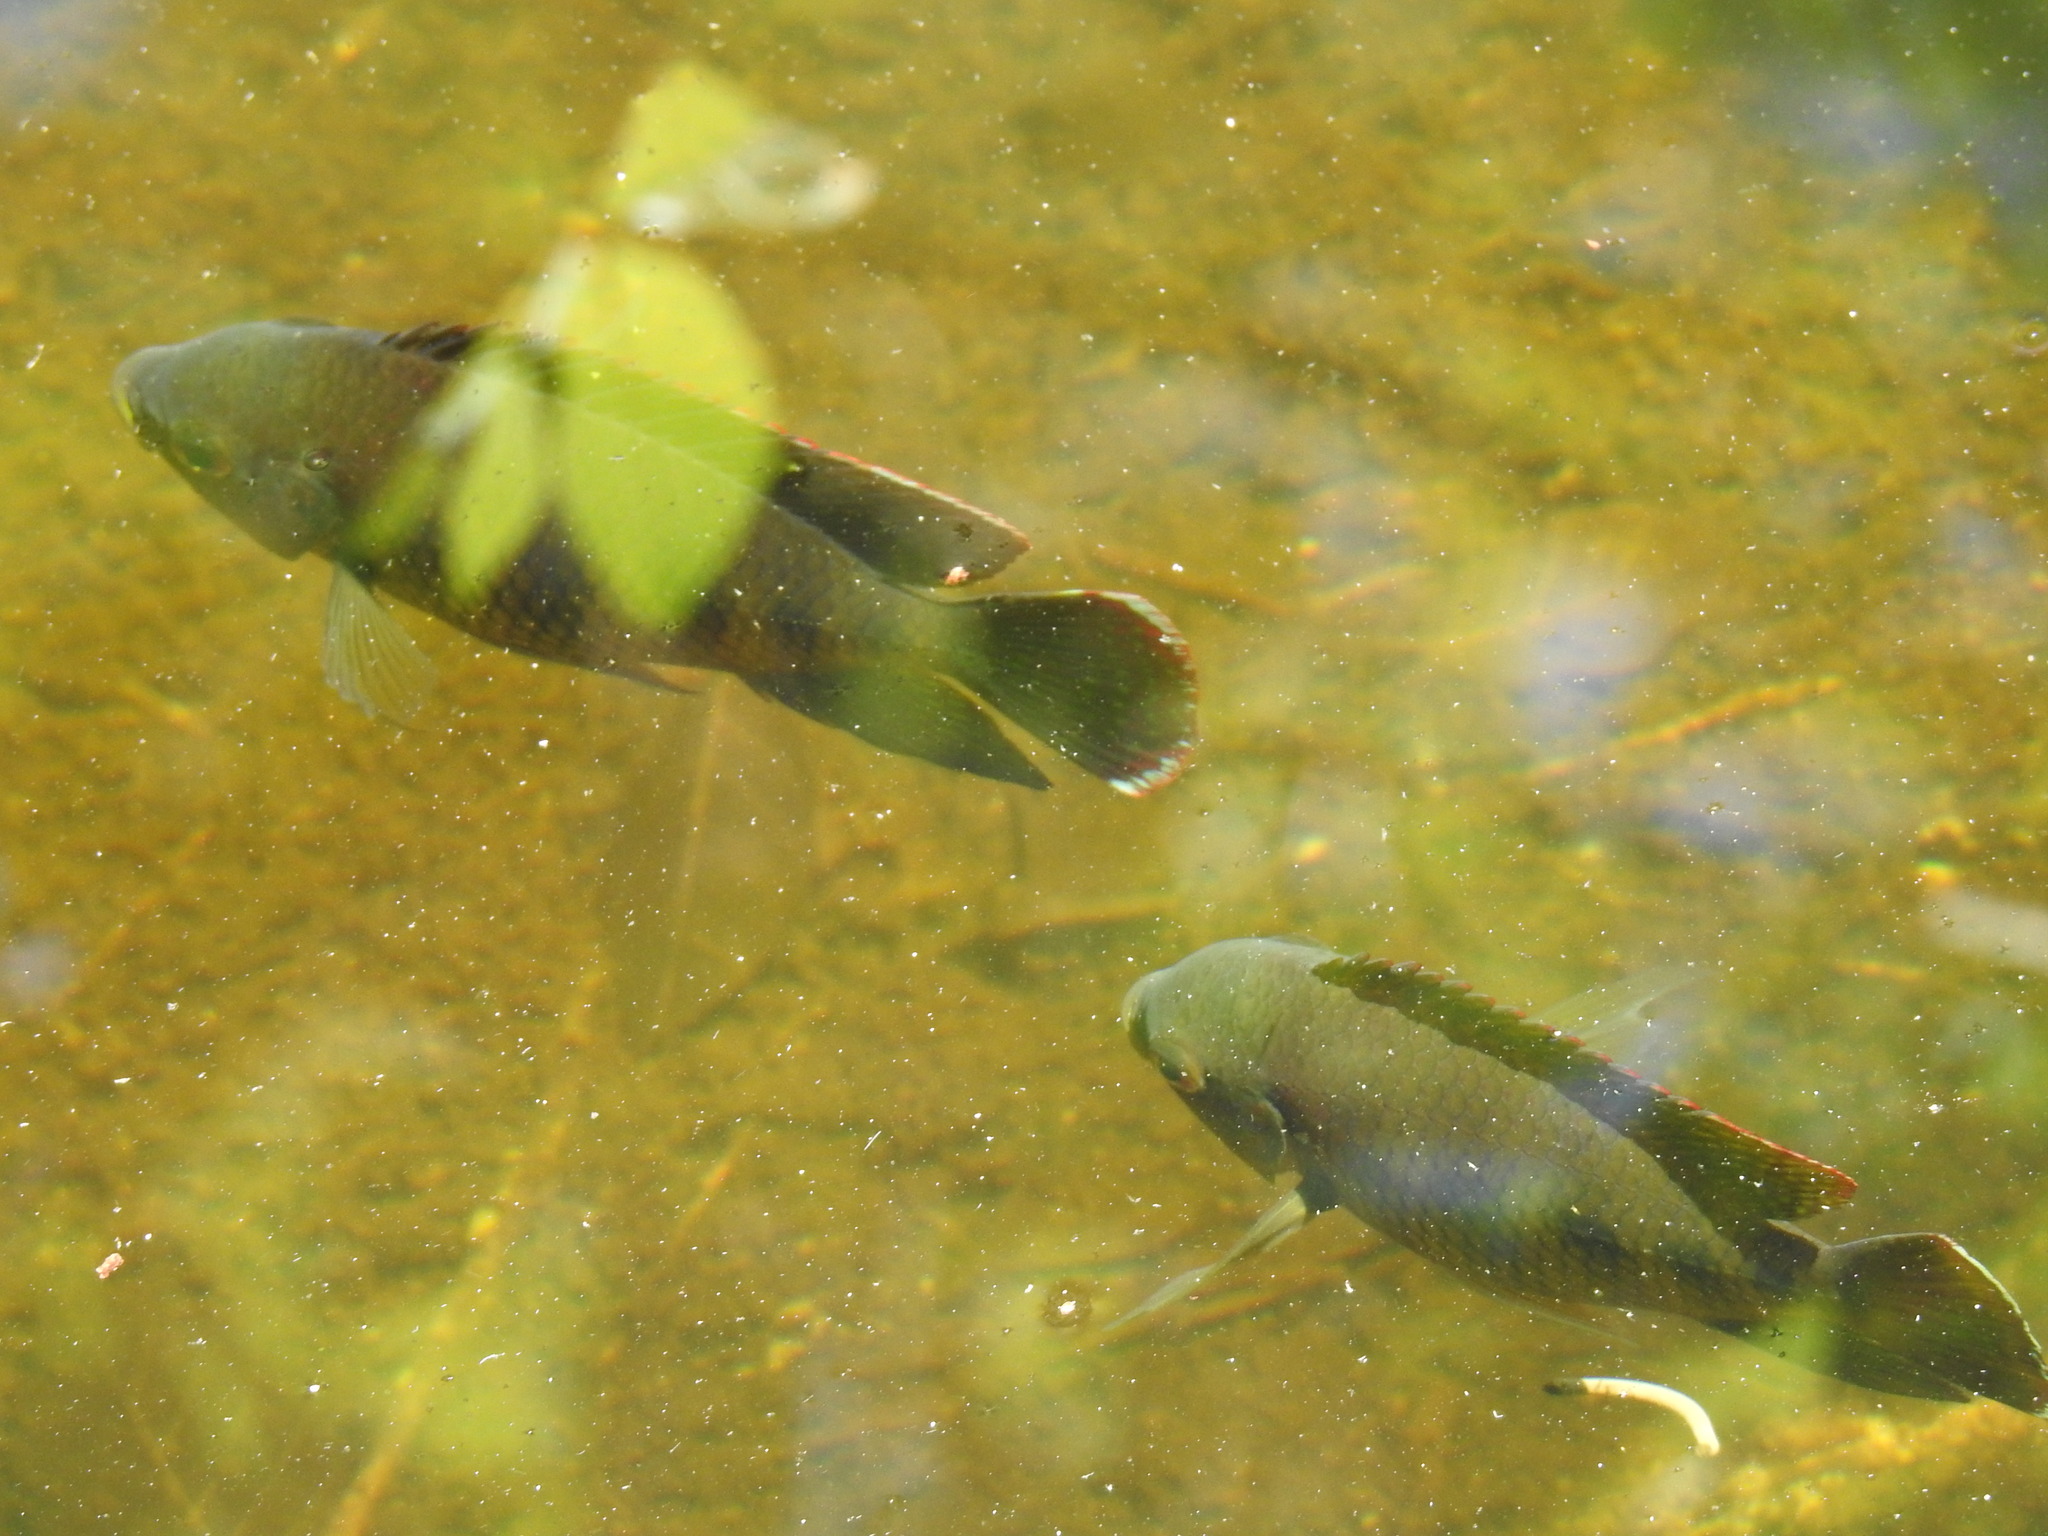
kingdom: Animalia
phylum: Chordata
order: Perciformes
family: Cichlidae
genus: Pelmatolapia
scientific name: Pelmatolapia mariae
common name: Spotted tilapia
